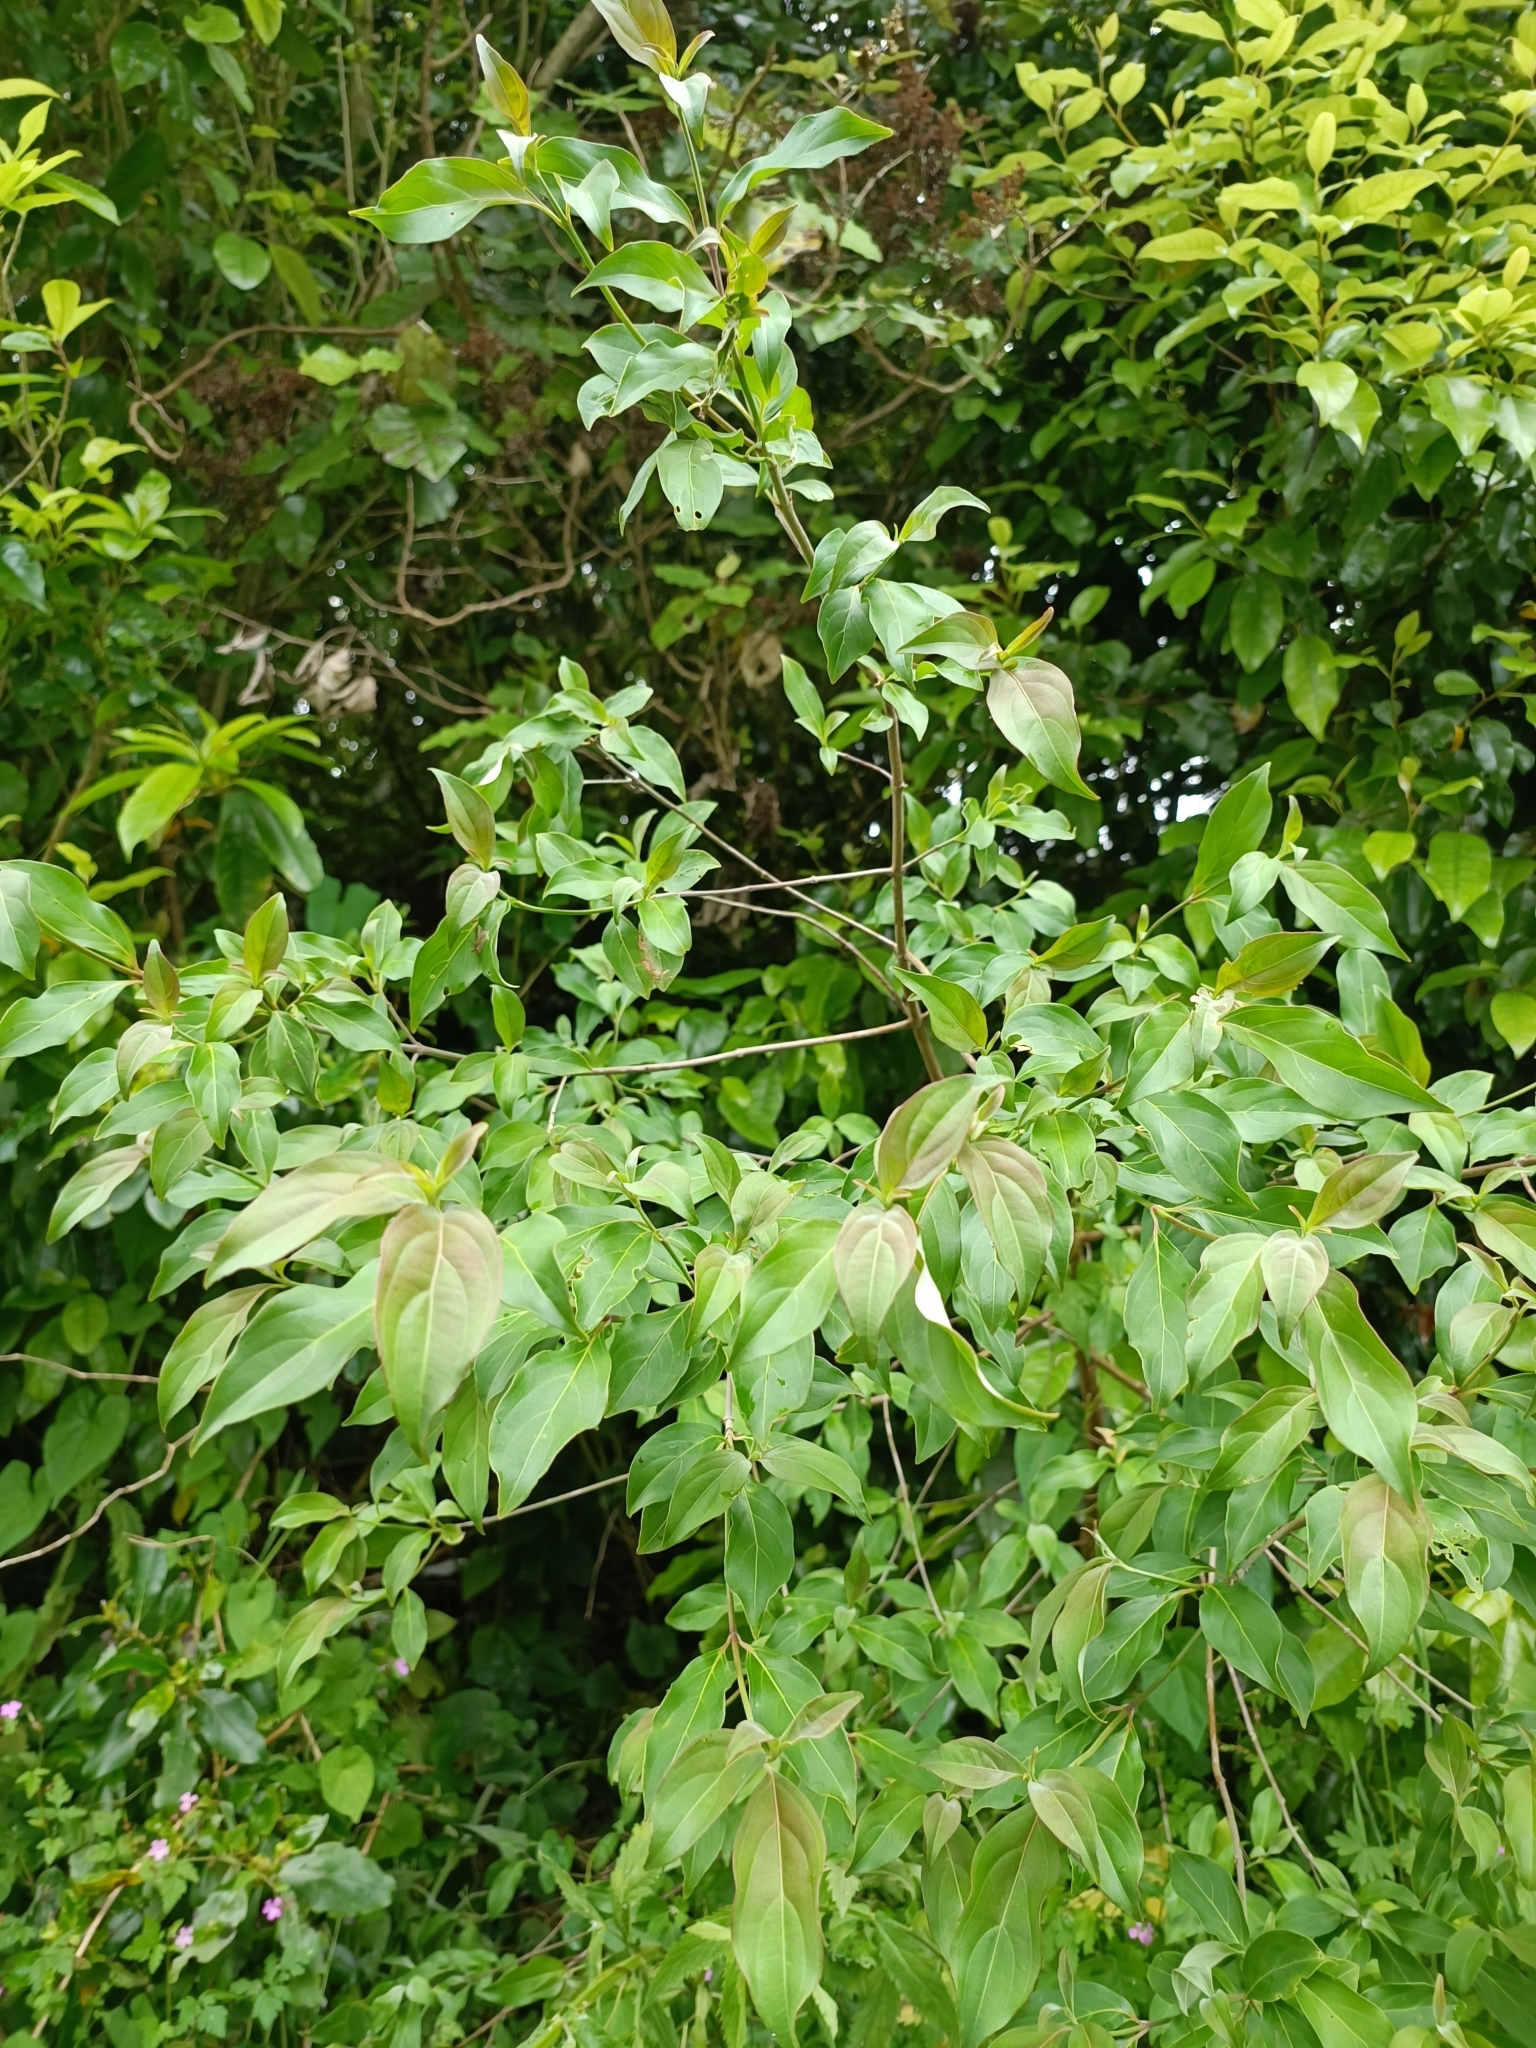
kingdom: Plantae
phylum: Tracheophyta
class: Magnoliopsida
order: Cornales
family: Cornaceae
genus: Cornus
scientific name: Cornus capitata
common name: Bentham's cornel
